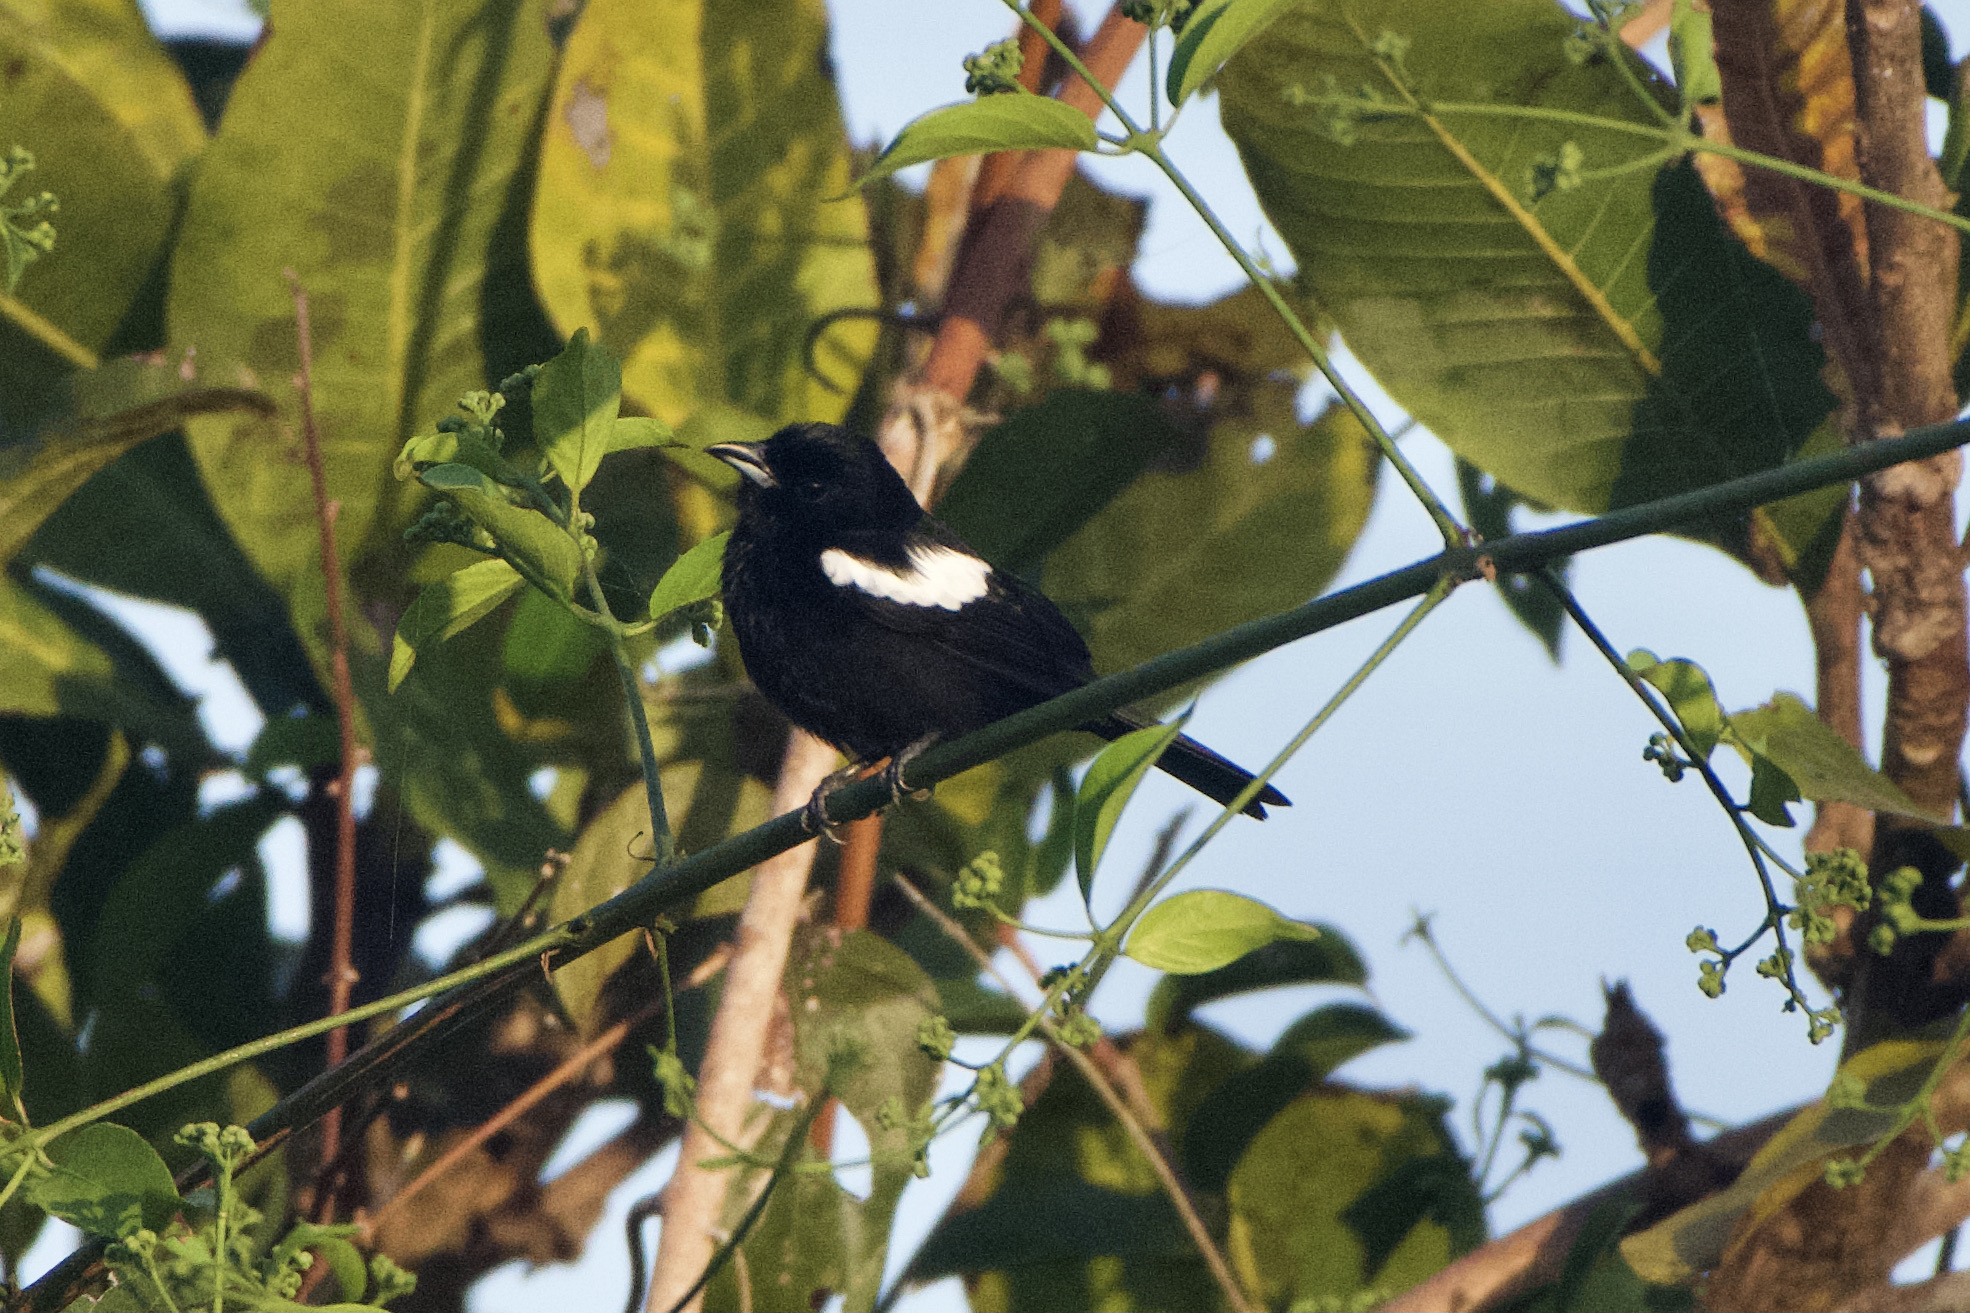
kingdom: Animalia
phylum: Chordata
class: Aves
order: Passeriformes
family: Thraupidae
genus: Loriotus
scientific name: Loriotus luctuosus
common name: White-shouldered tanager
